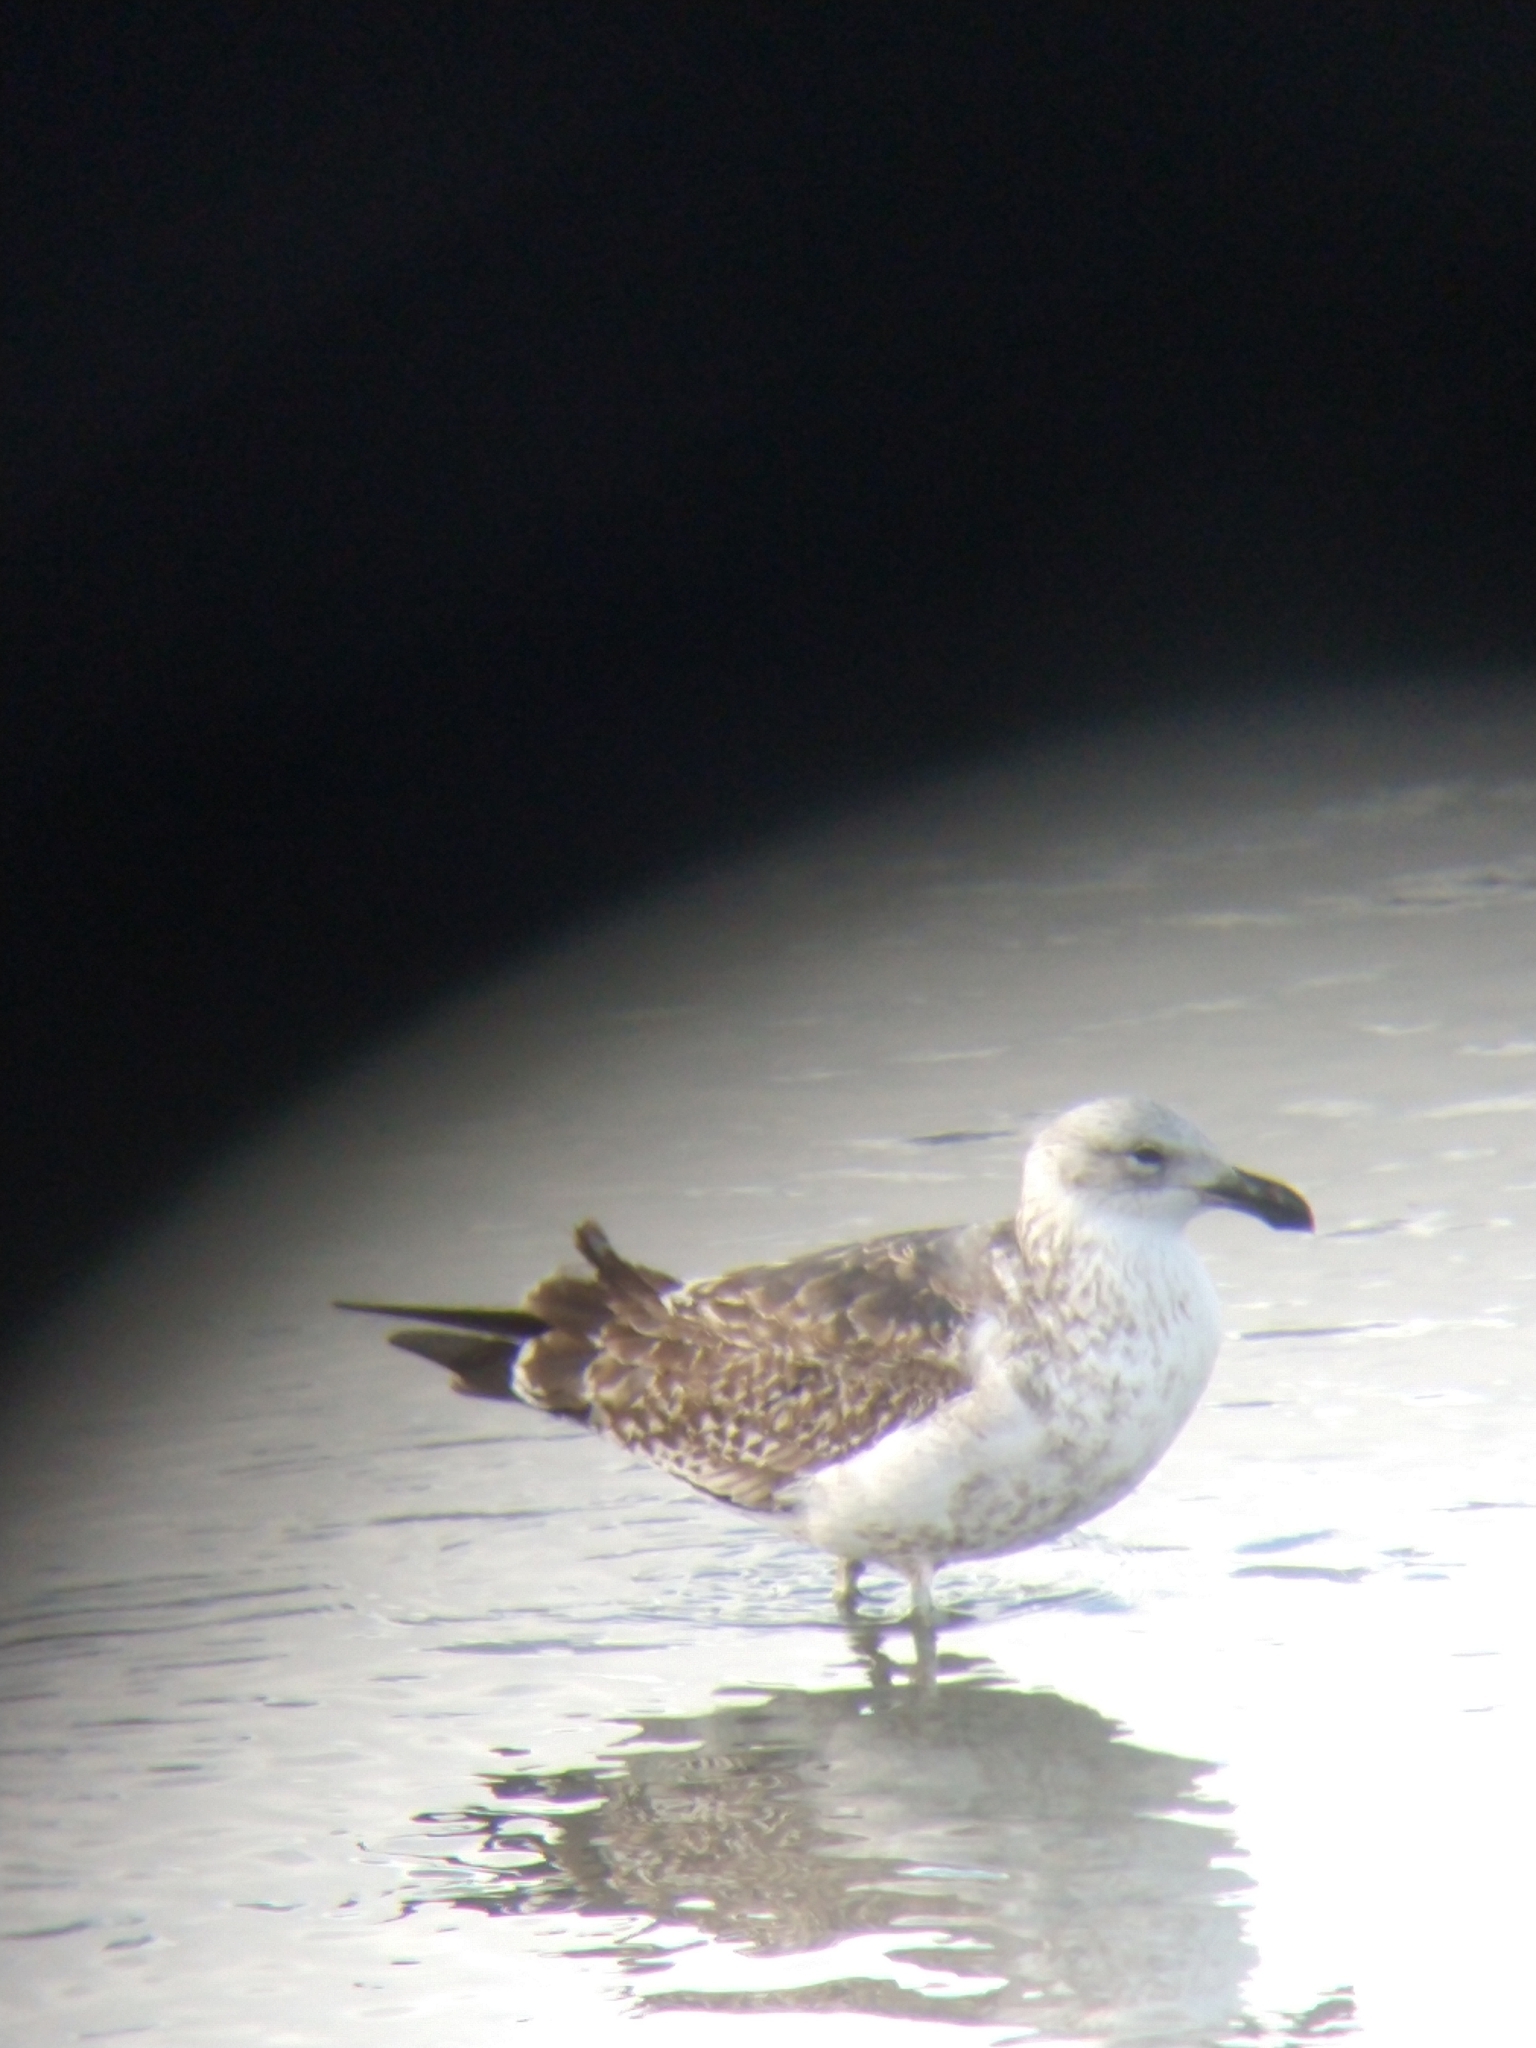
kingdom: Animalia
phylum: Chordata
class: Aves
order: Charadriiformes
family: Laridae
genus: Larus
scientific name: Larus dominicanus
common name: Kelp gull
